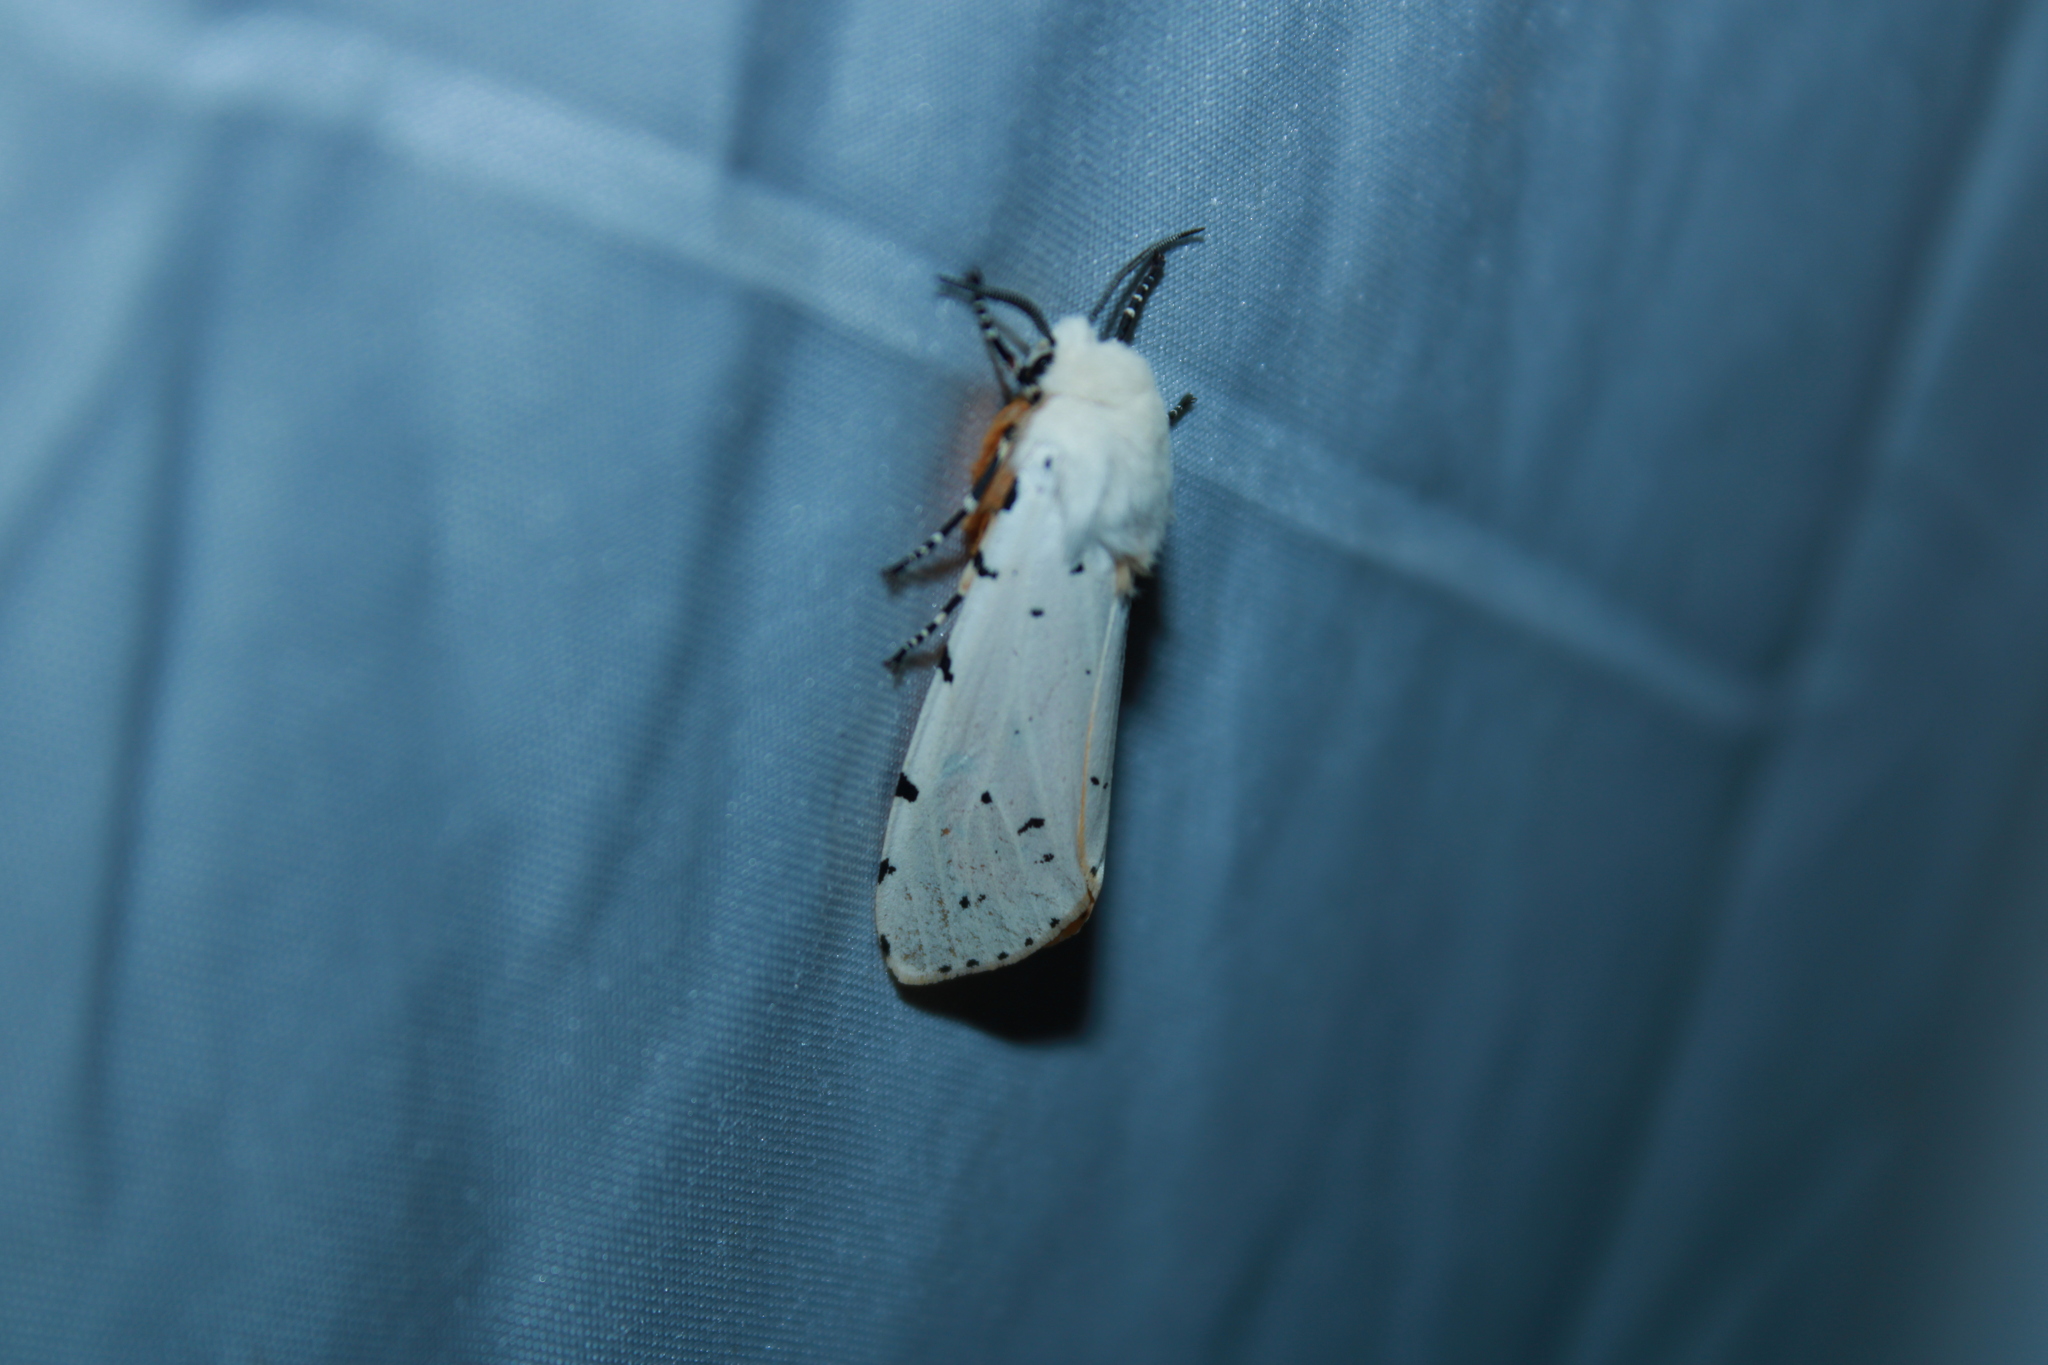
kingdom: Animalia
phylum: Arthropoda
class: Insecta
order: Lepidoptera
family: Erebidae
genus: Estigmene
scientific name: Estigmene acrea
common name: Salt marsh moth
